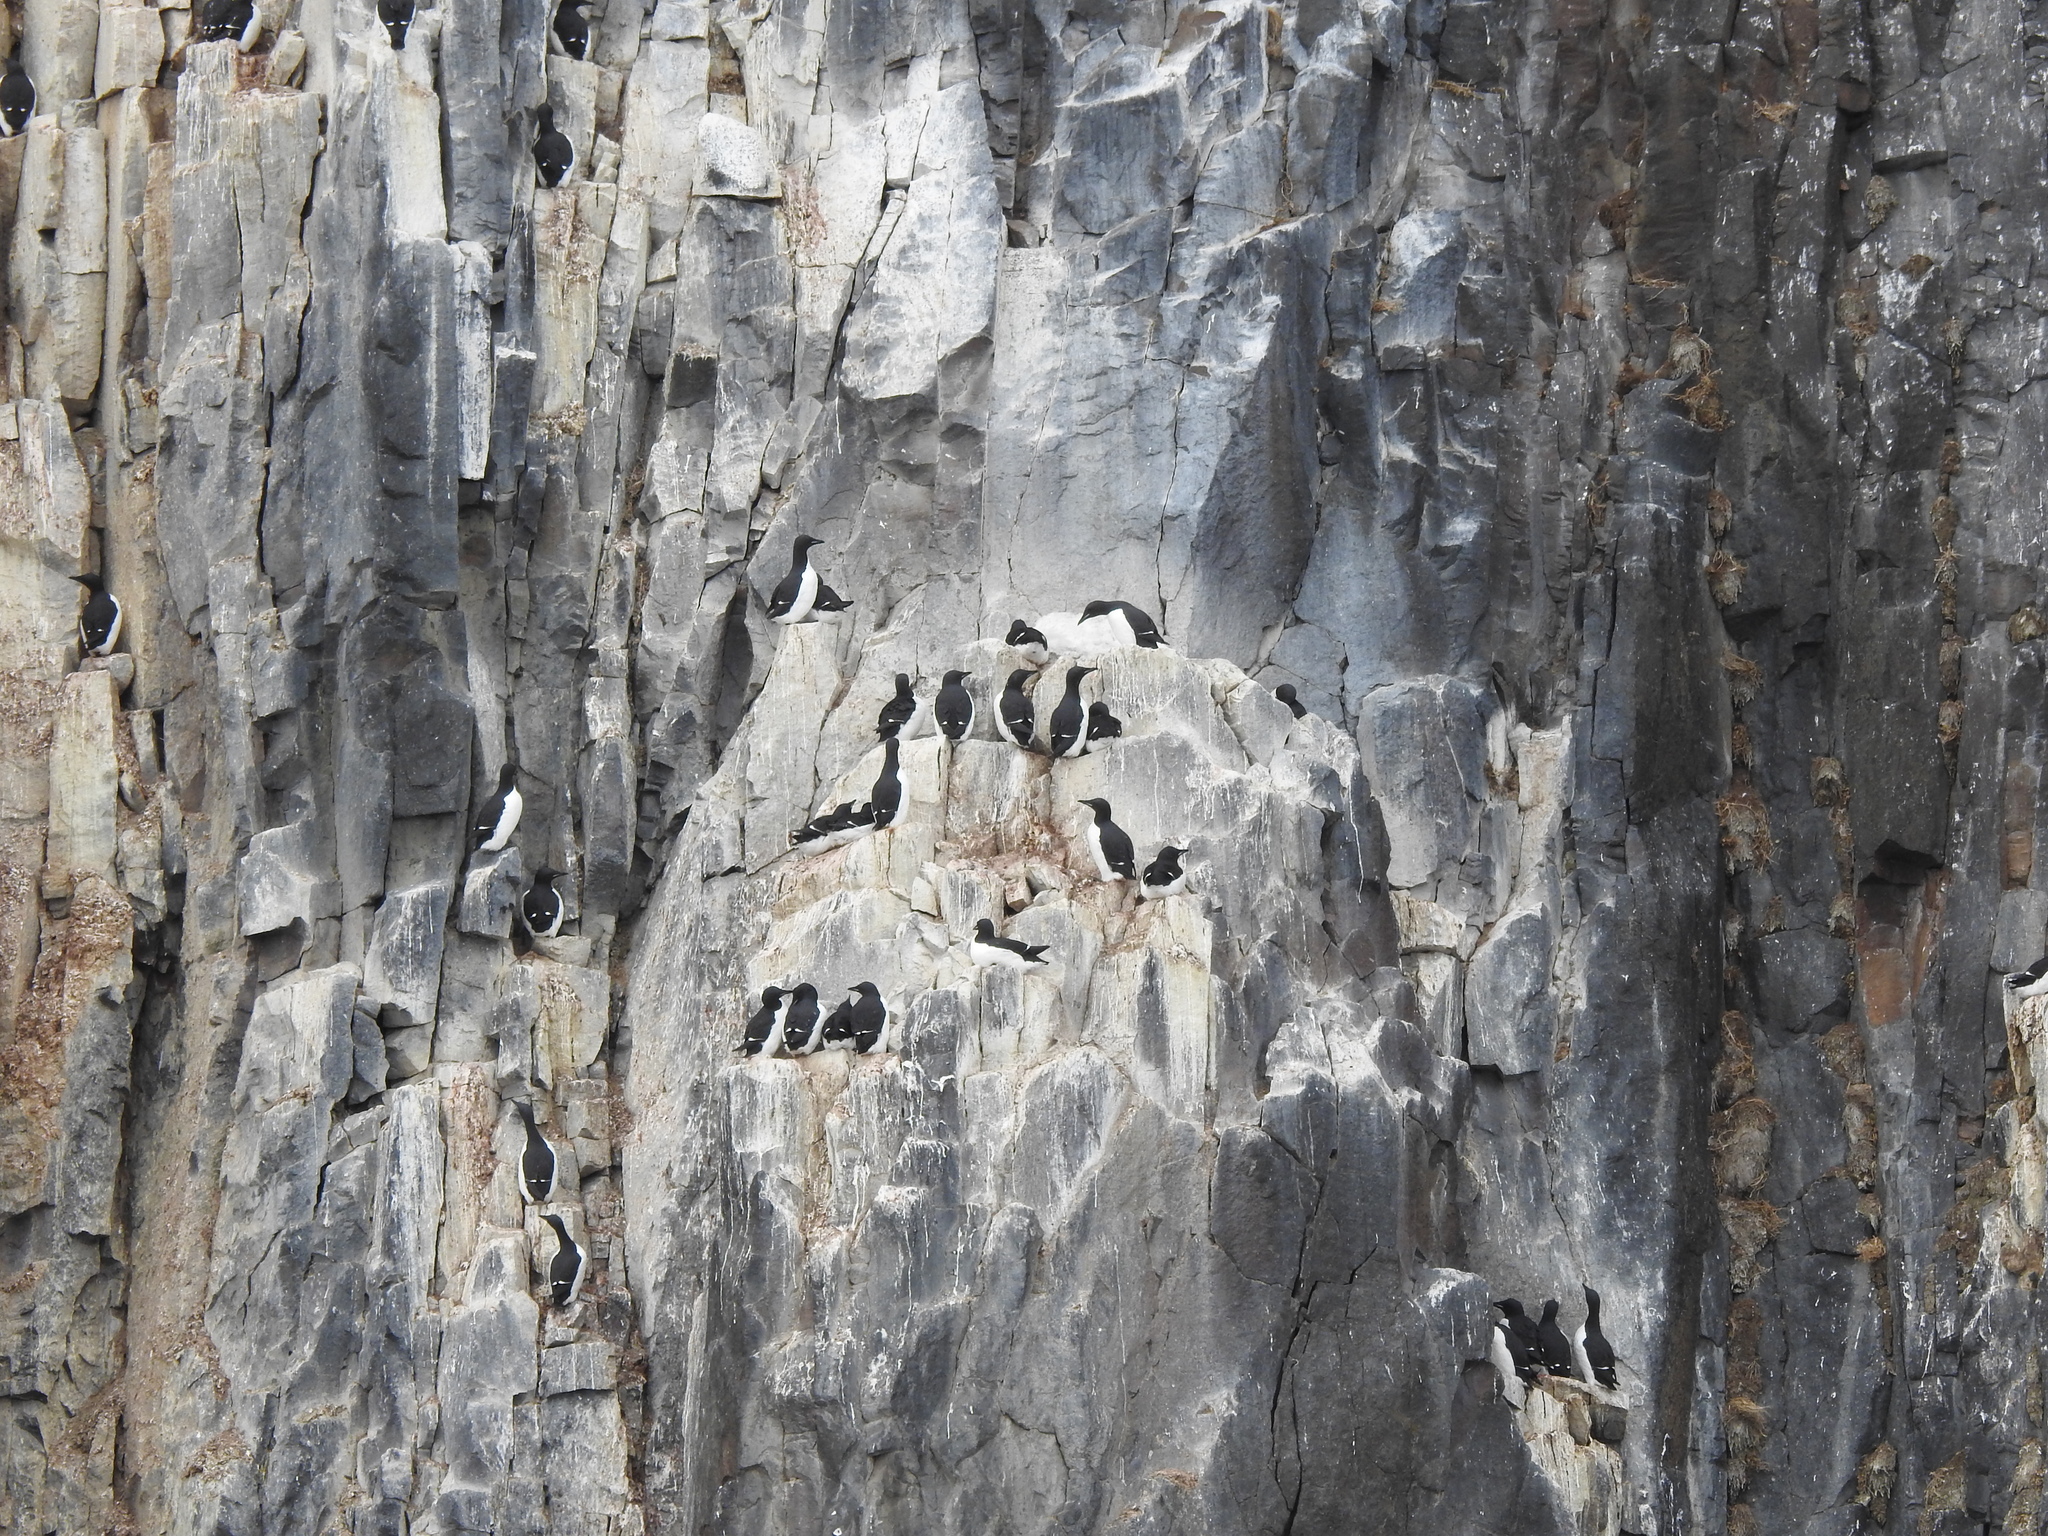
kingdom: Animalia
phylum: Chordata
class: Aves
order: Charadriiformes
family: Alcidae
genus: Uria
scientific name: Uria lomvia
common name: Thick-billed murre
